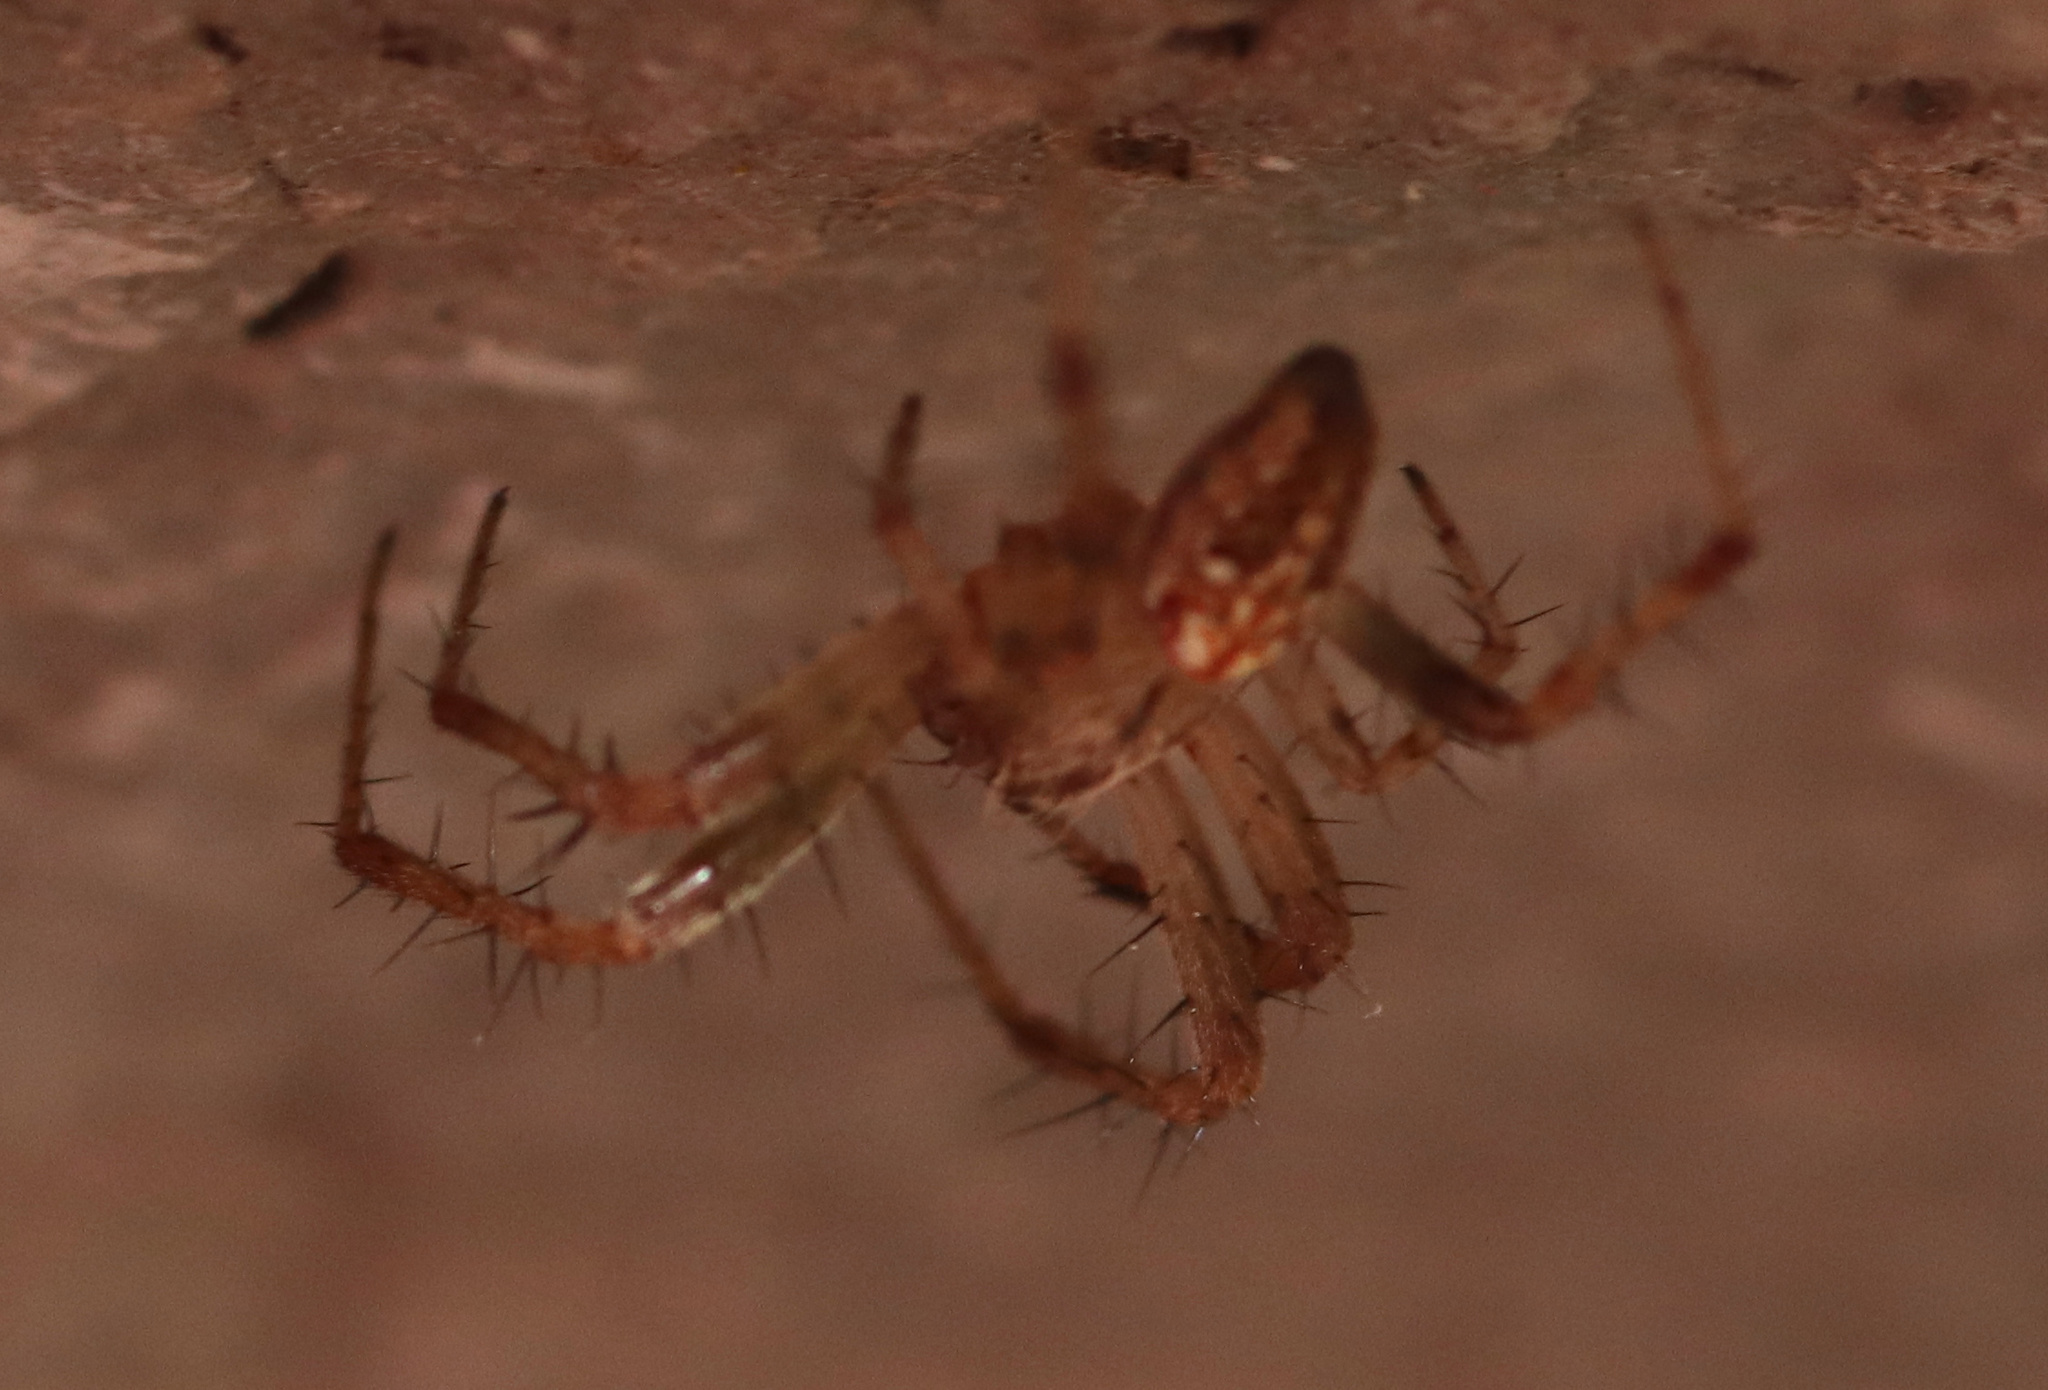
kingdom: Animalia
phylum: Arthropoda
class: Arachnida
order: Araneae
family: Araneidae
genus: Neoscona
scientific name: Neoscona arabesca
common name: Orb weavers
